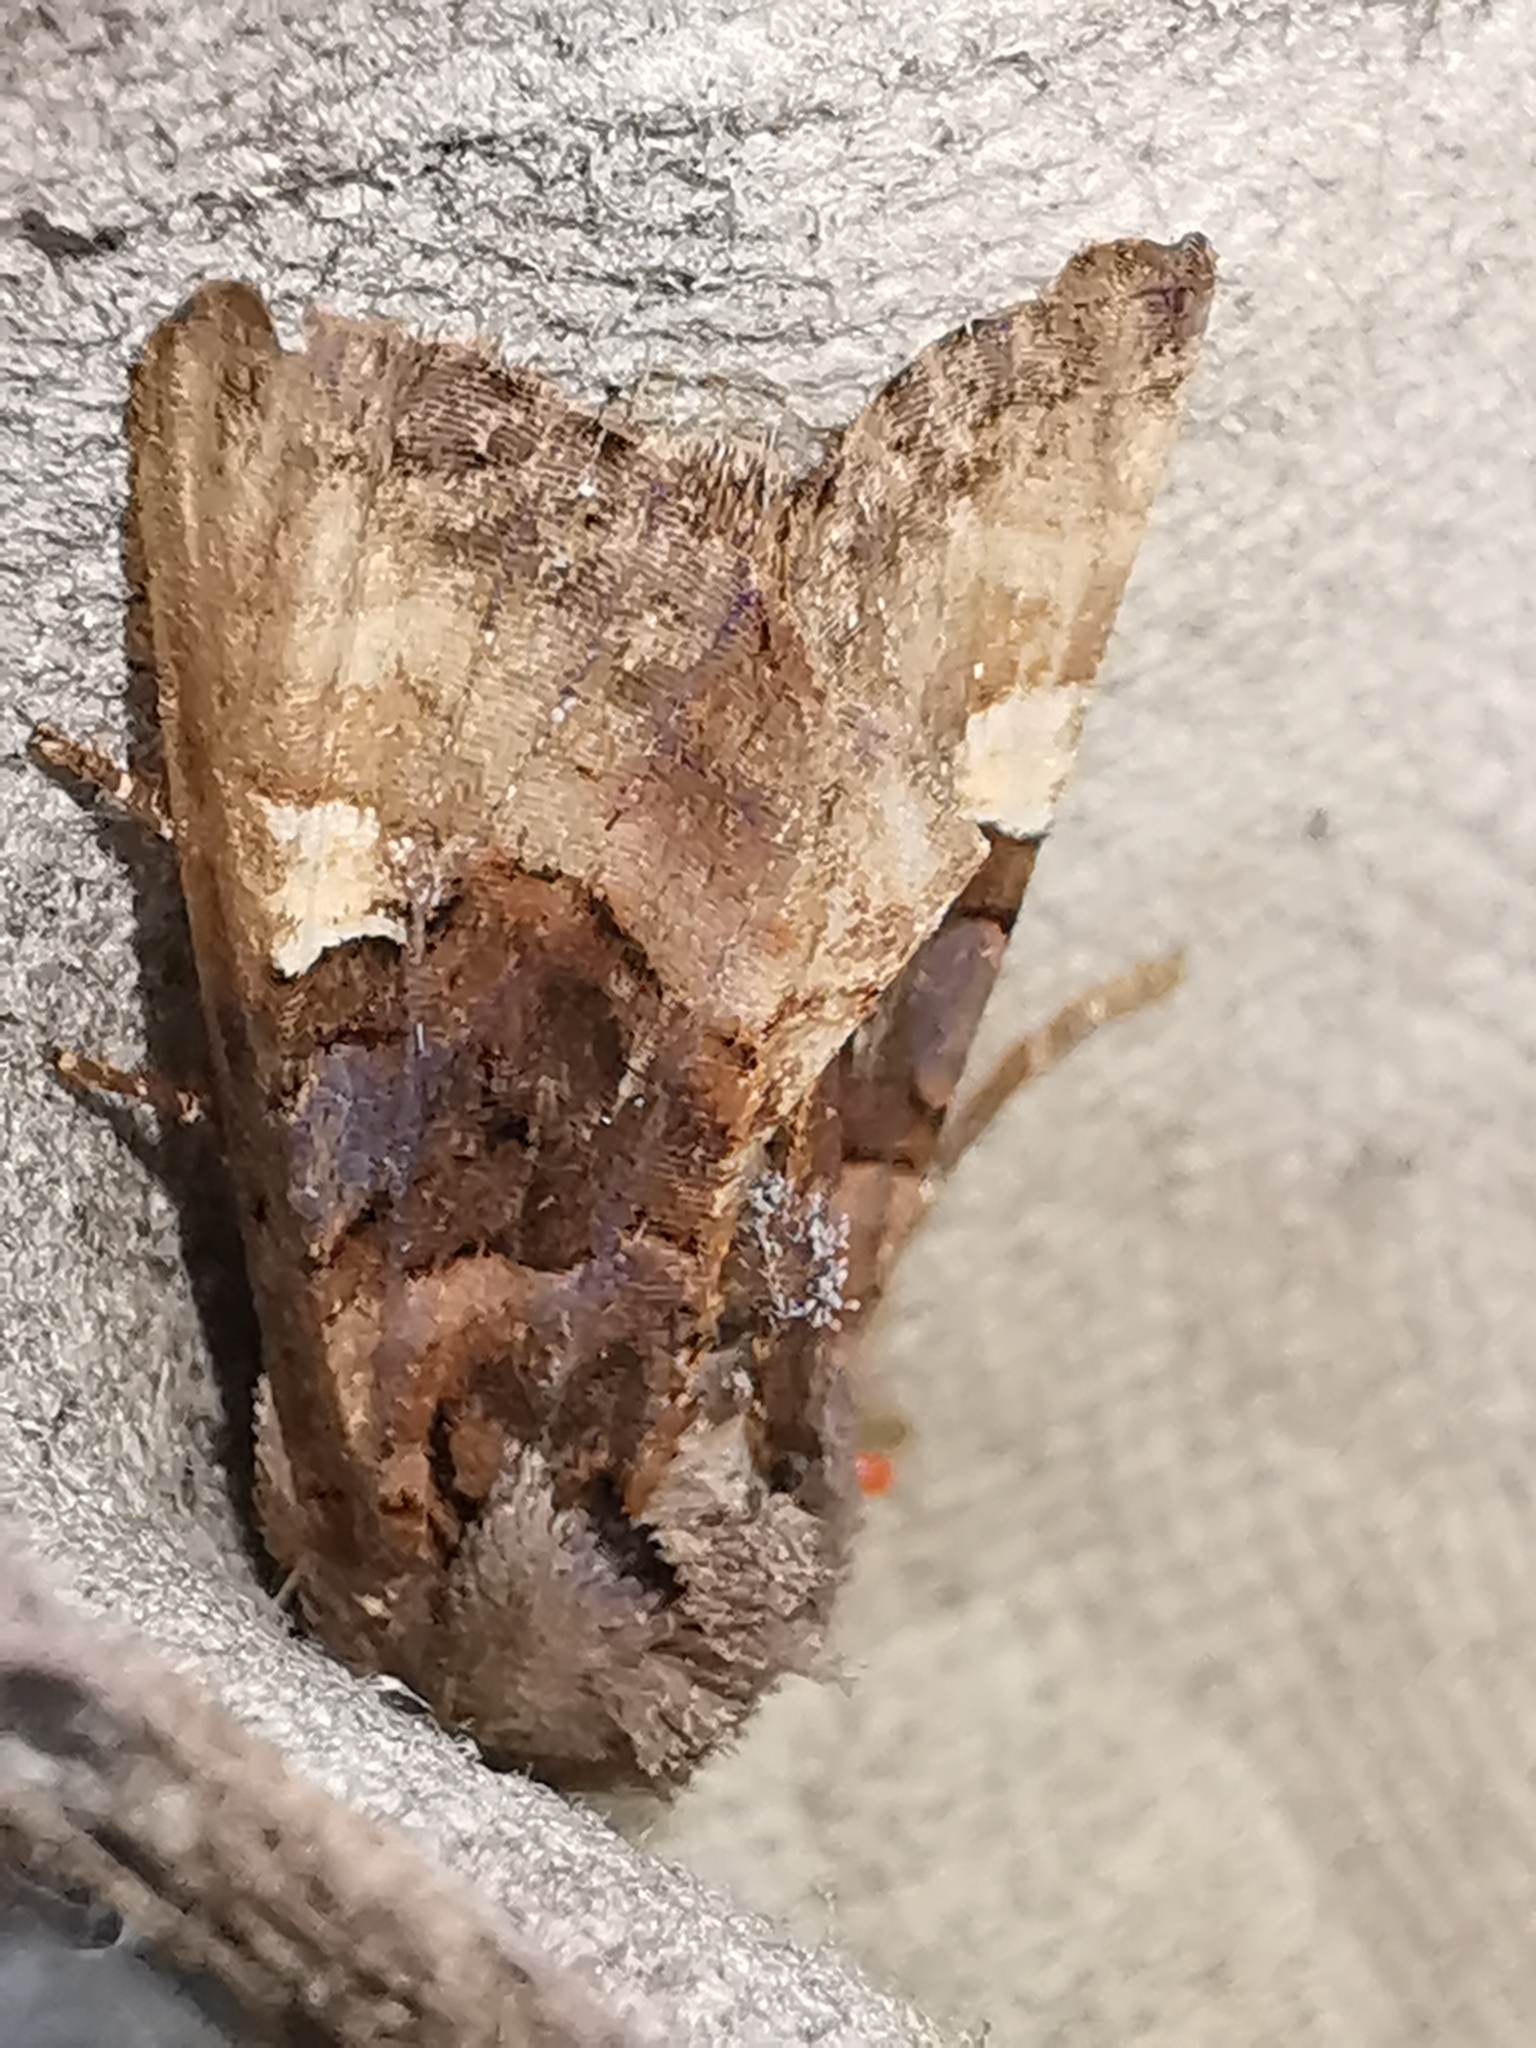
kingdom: Animalia
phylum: Arthropoda
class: Insecta
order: Lepidoptera
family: Noctuidae
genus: Euplexia
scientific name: Euplexia lucipara
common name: Small angle shades
